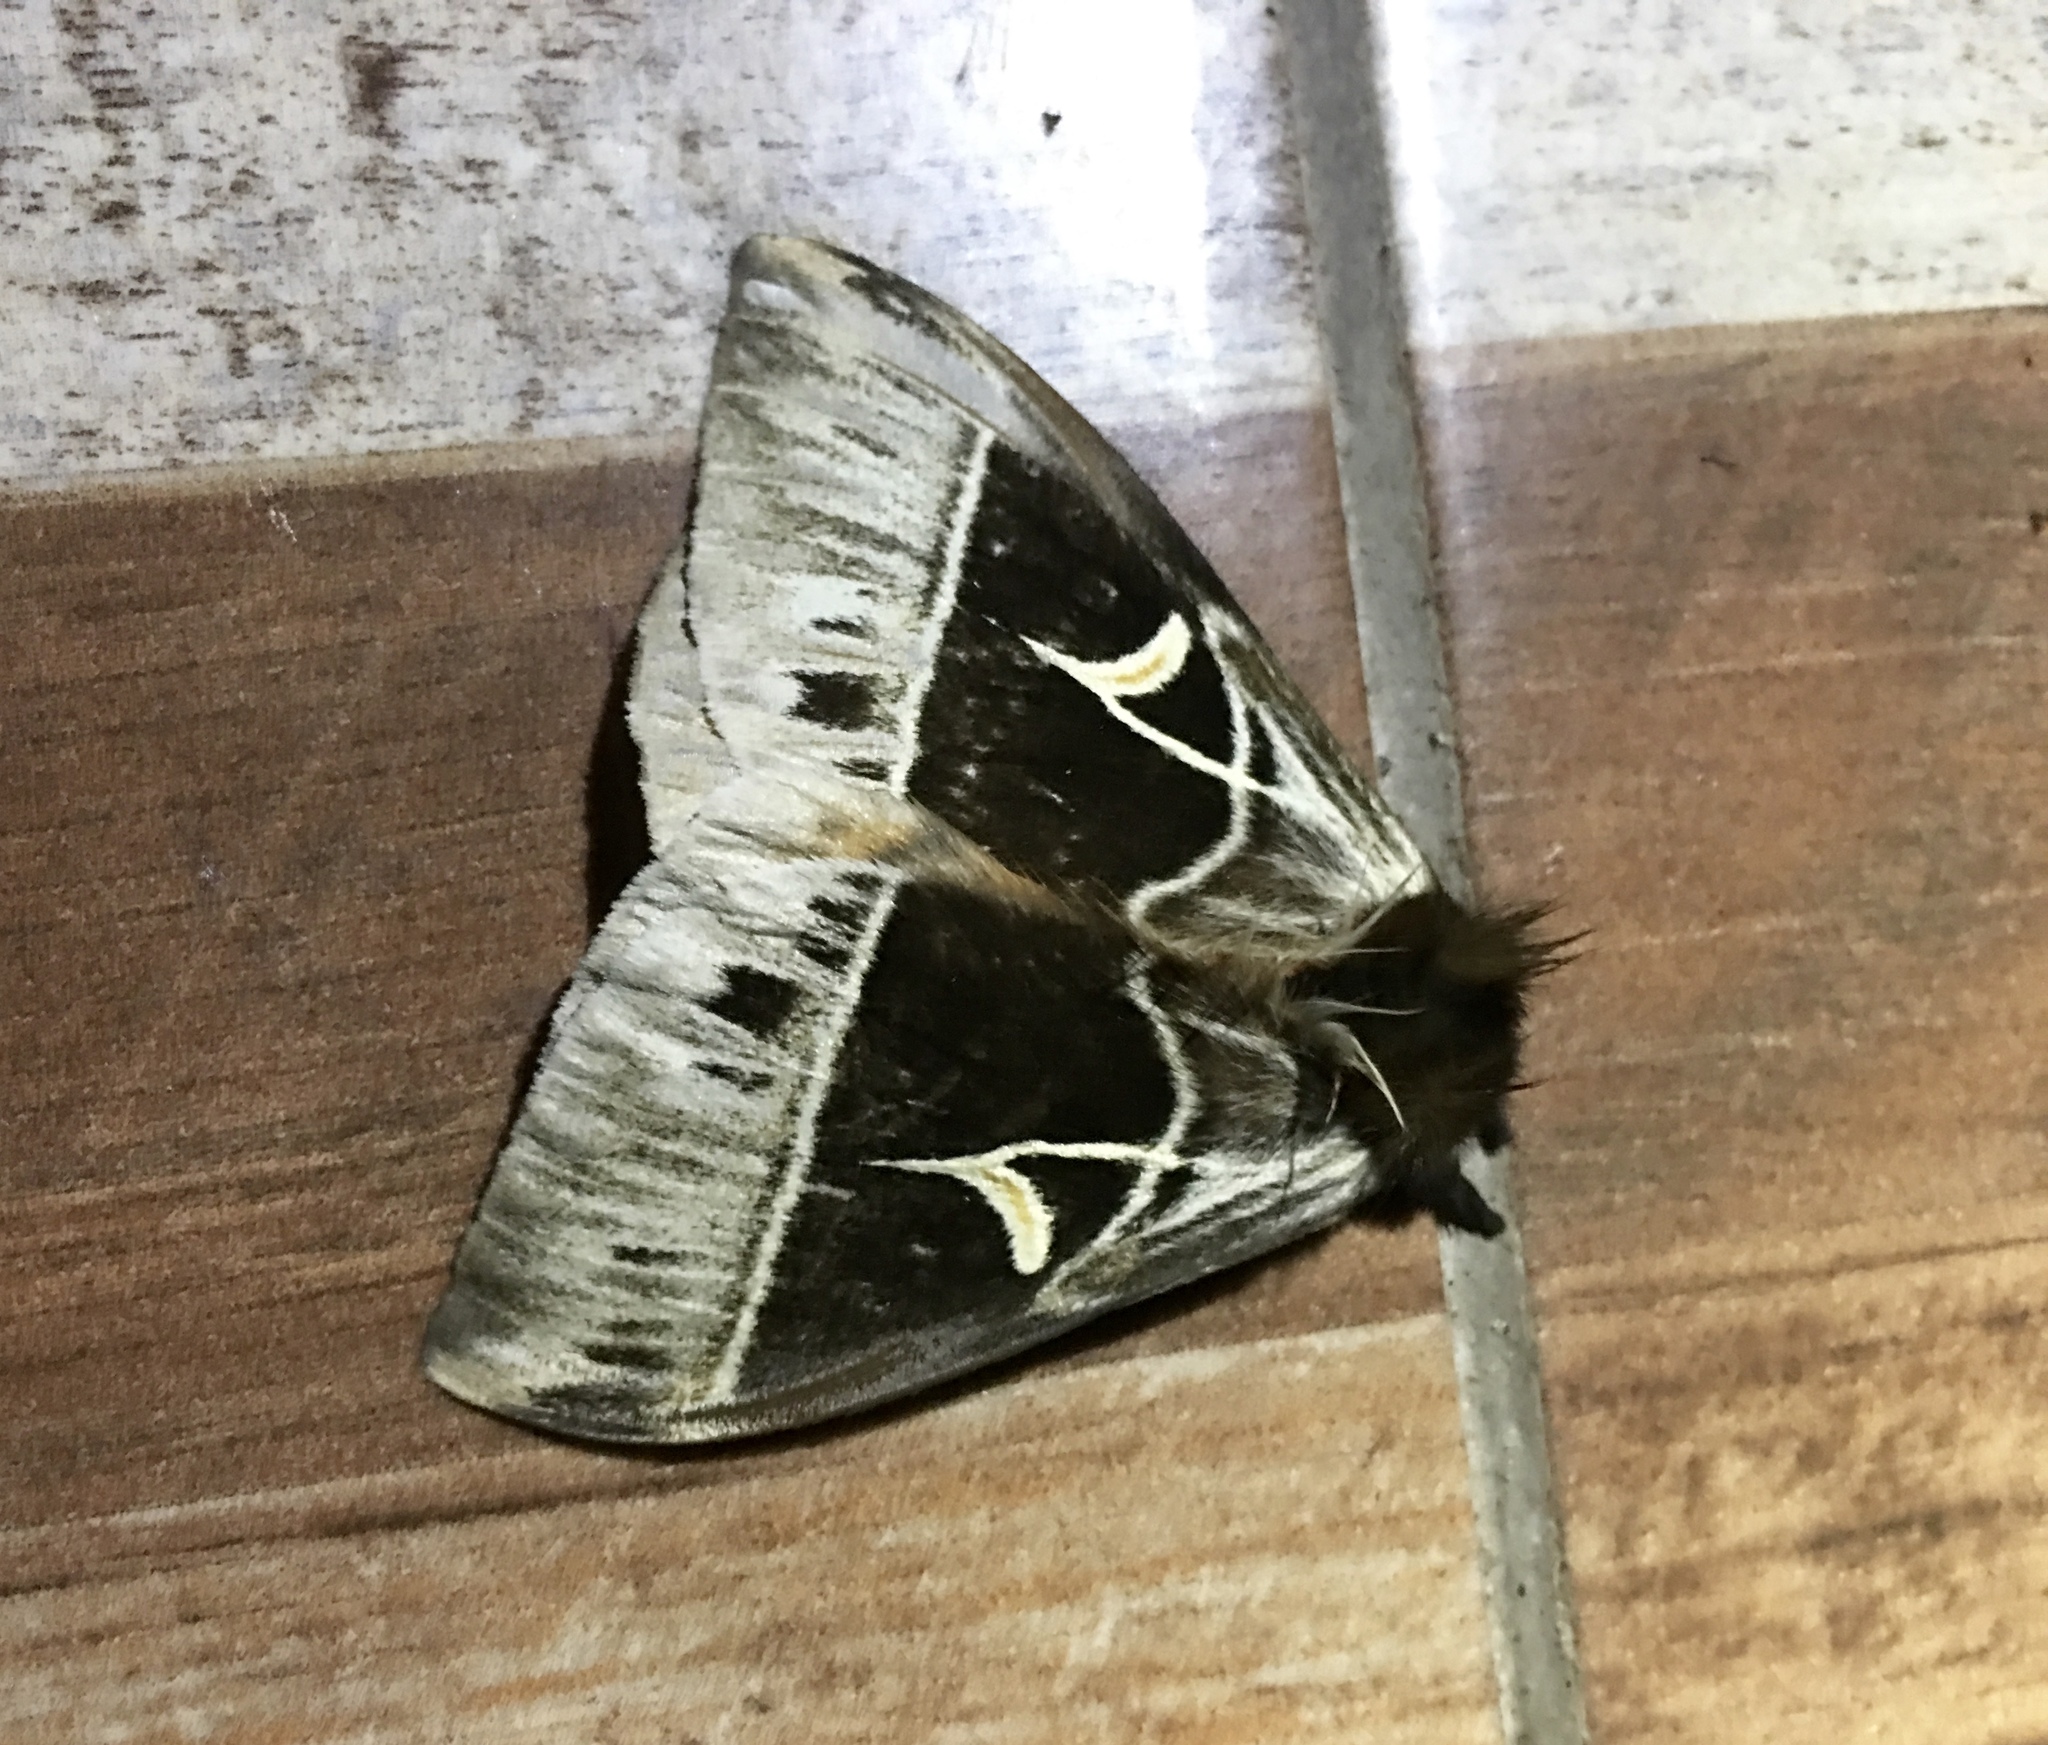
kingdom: Animalia
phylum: Arthropoda
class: Insecta
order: Lepidoptera
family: Saturniidae
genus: Dirphia
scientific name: Dirphia subhorca
